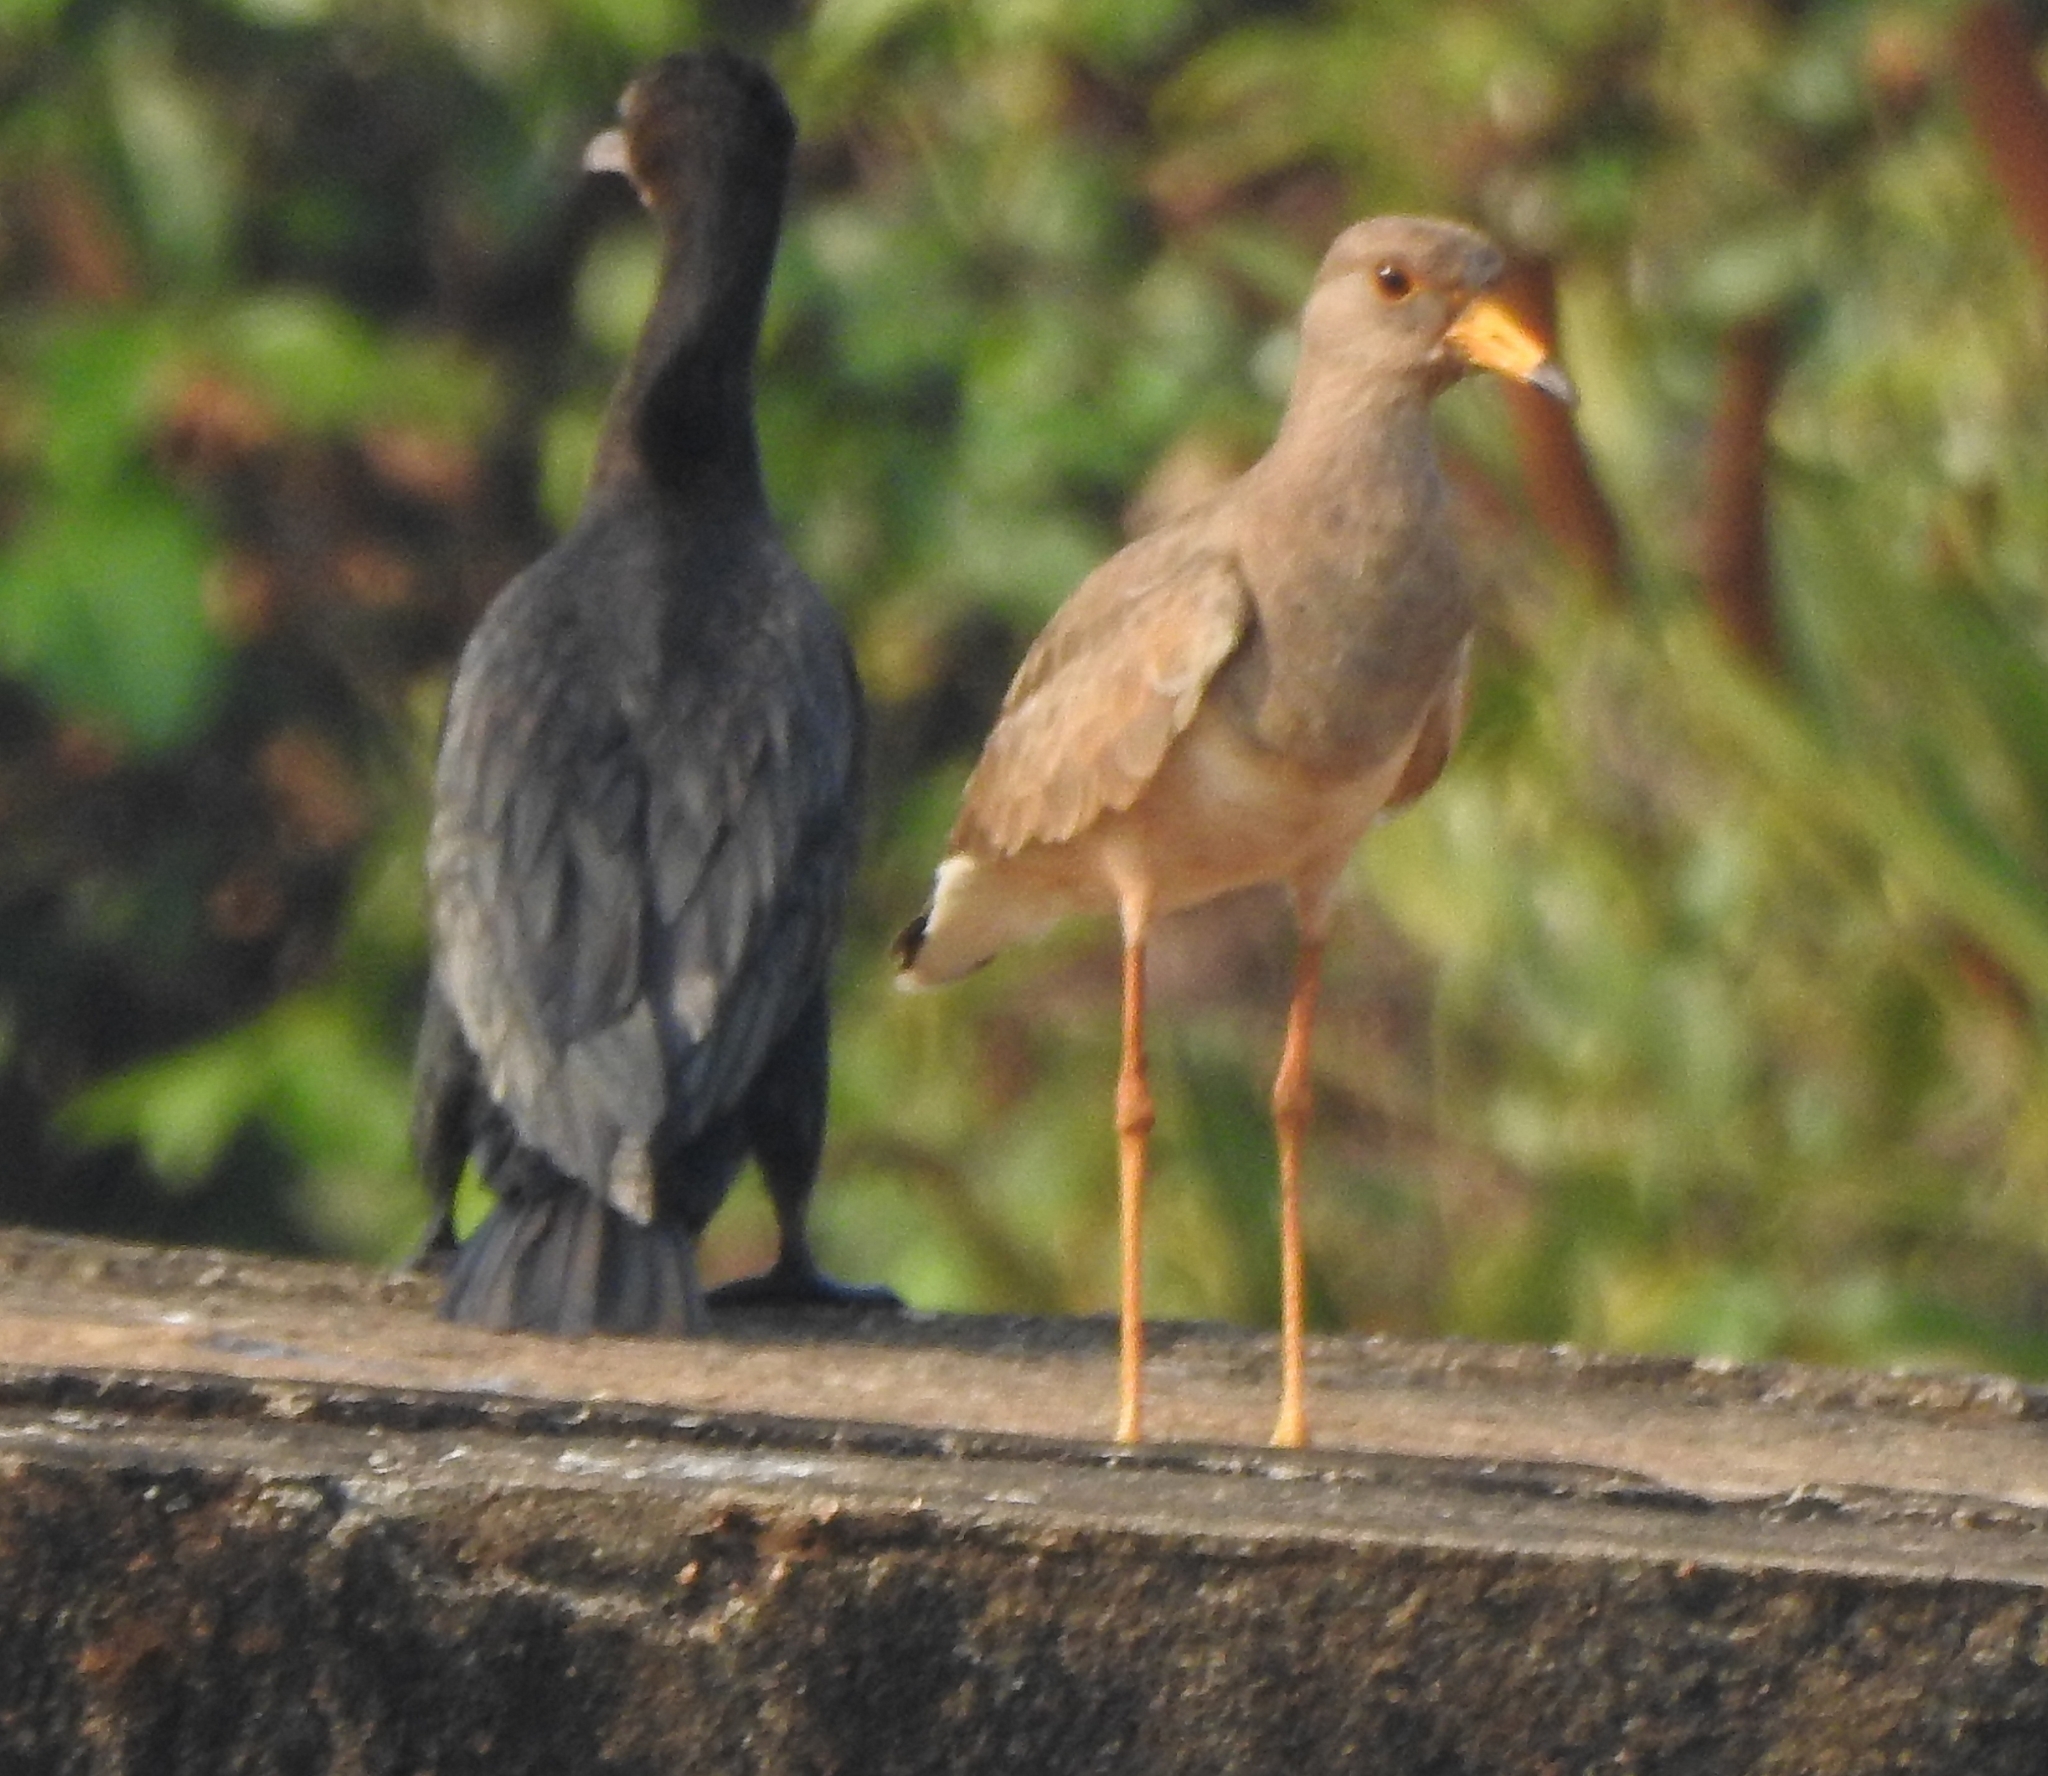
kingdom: Animalia
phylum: Chordata
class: Aves
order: Suliformes
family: Phalacrocoracidae
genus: Microcarbo
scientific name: Microcarbo niger
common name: Little cormorant
